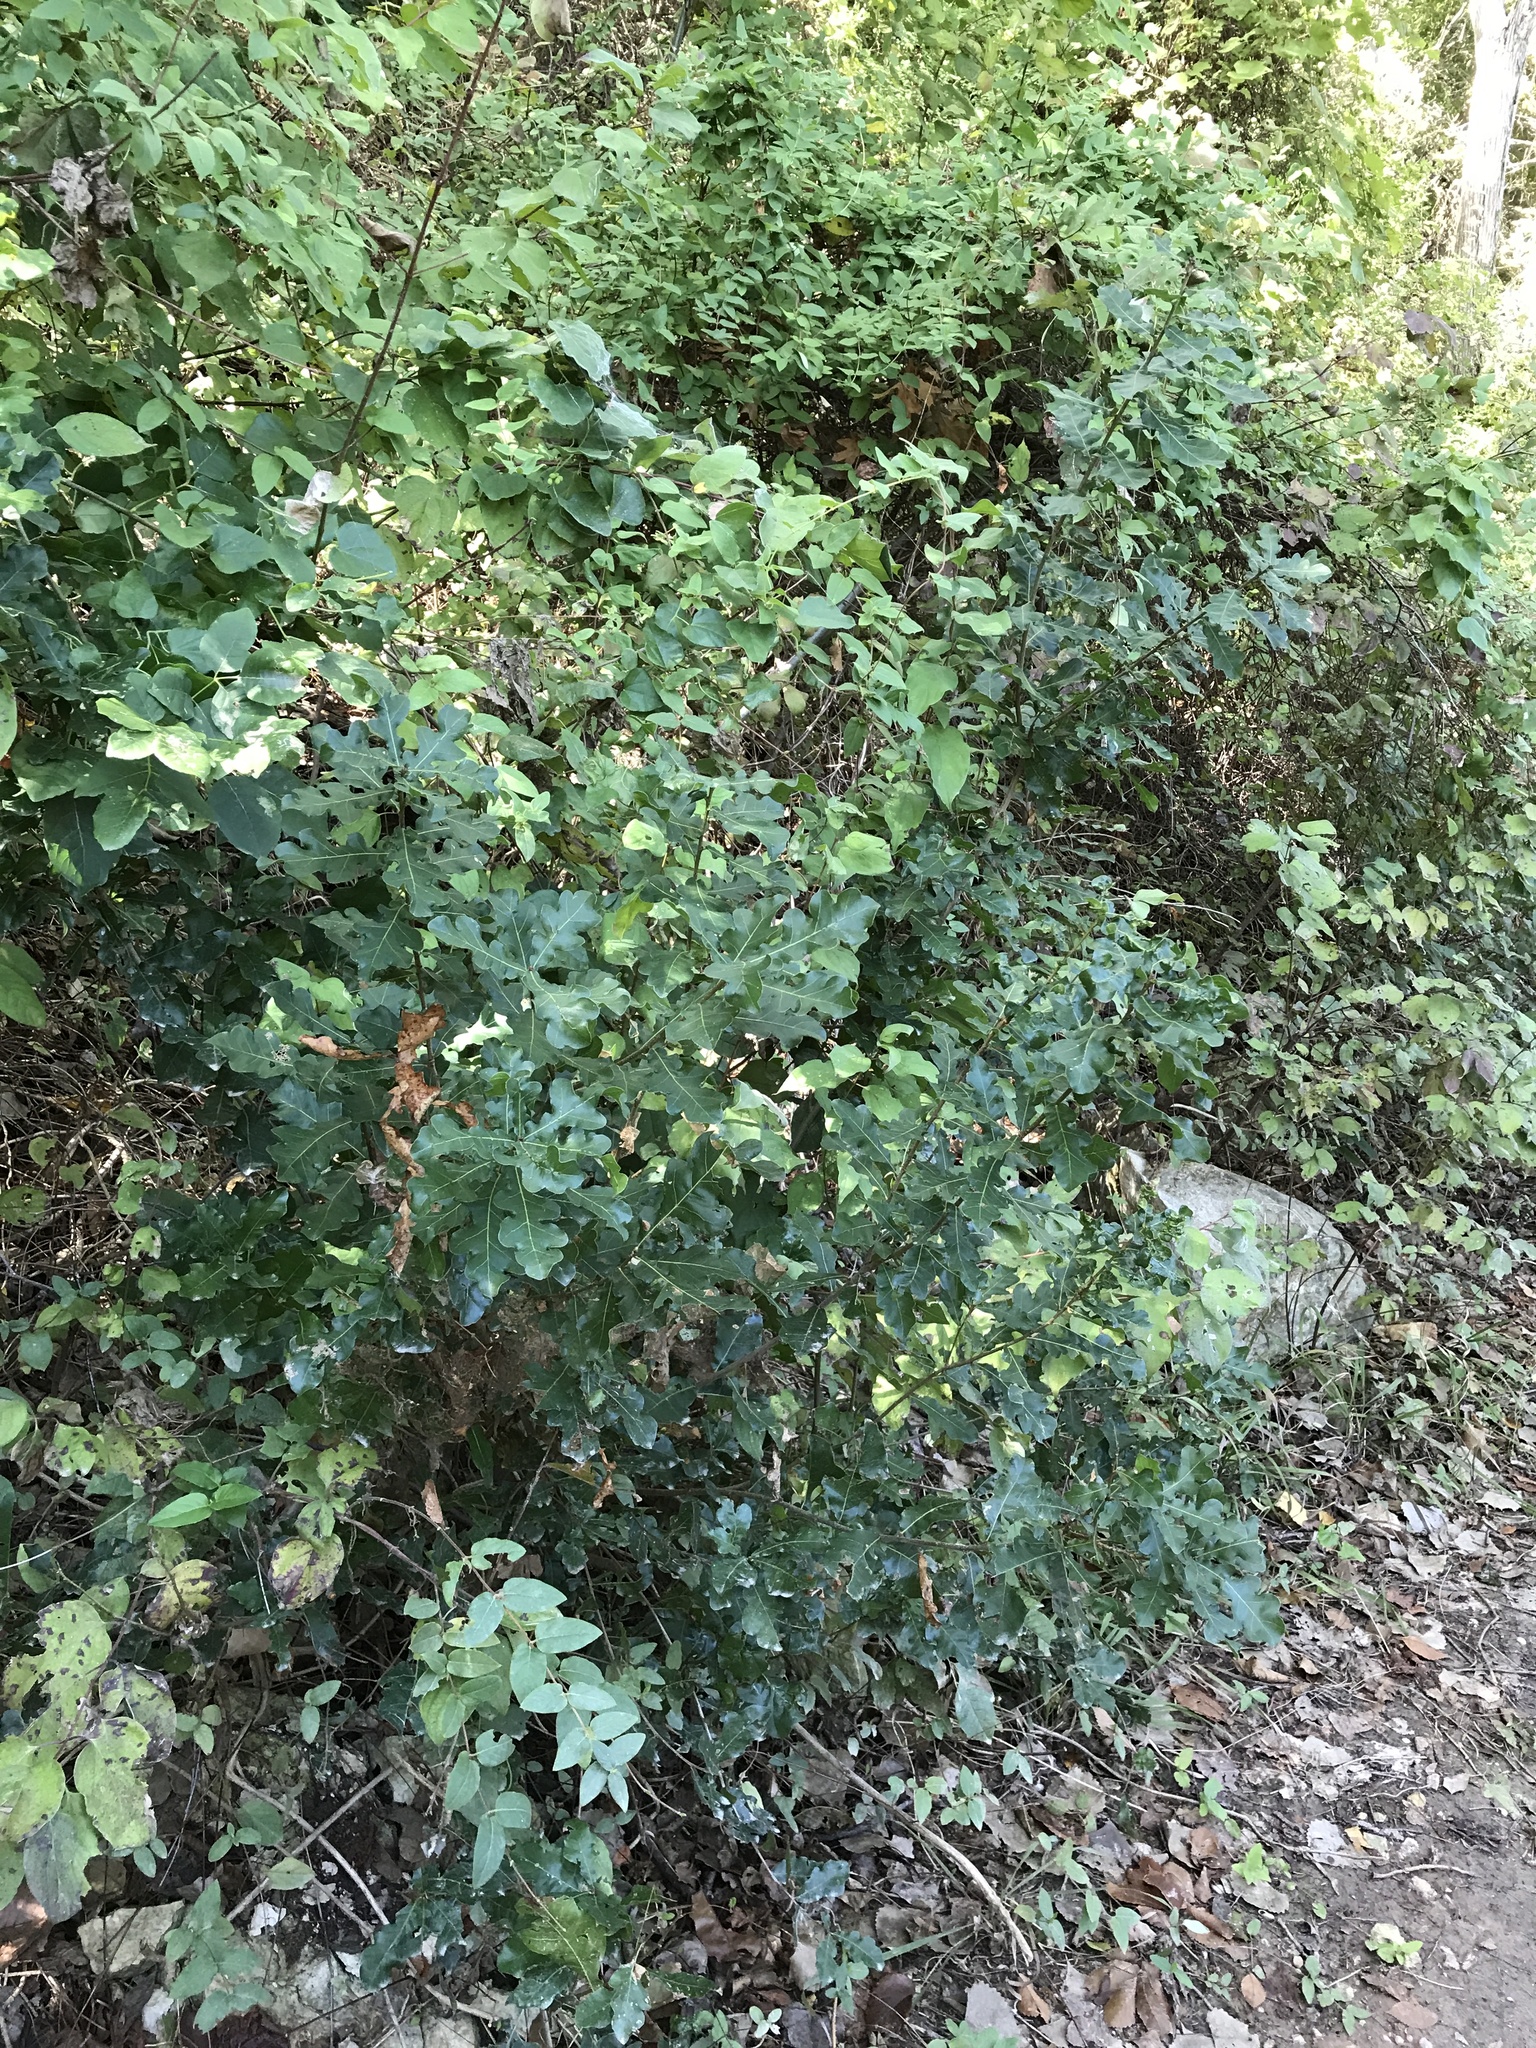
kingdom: Plantae
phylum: Tracheophyta
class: Magnoliopsida
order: Fagales
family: Fagaceae
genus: Quercus
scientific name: Quercus sinuata
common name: Durand oak
